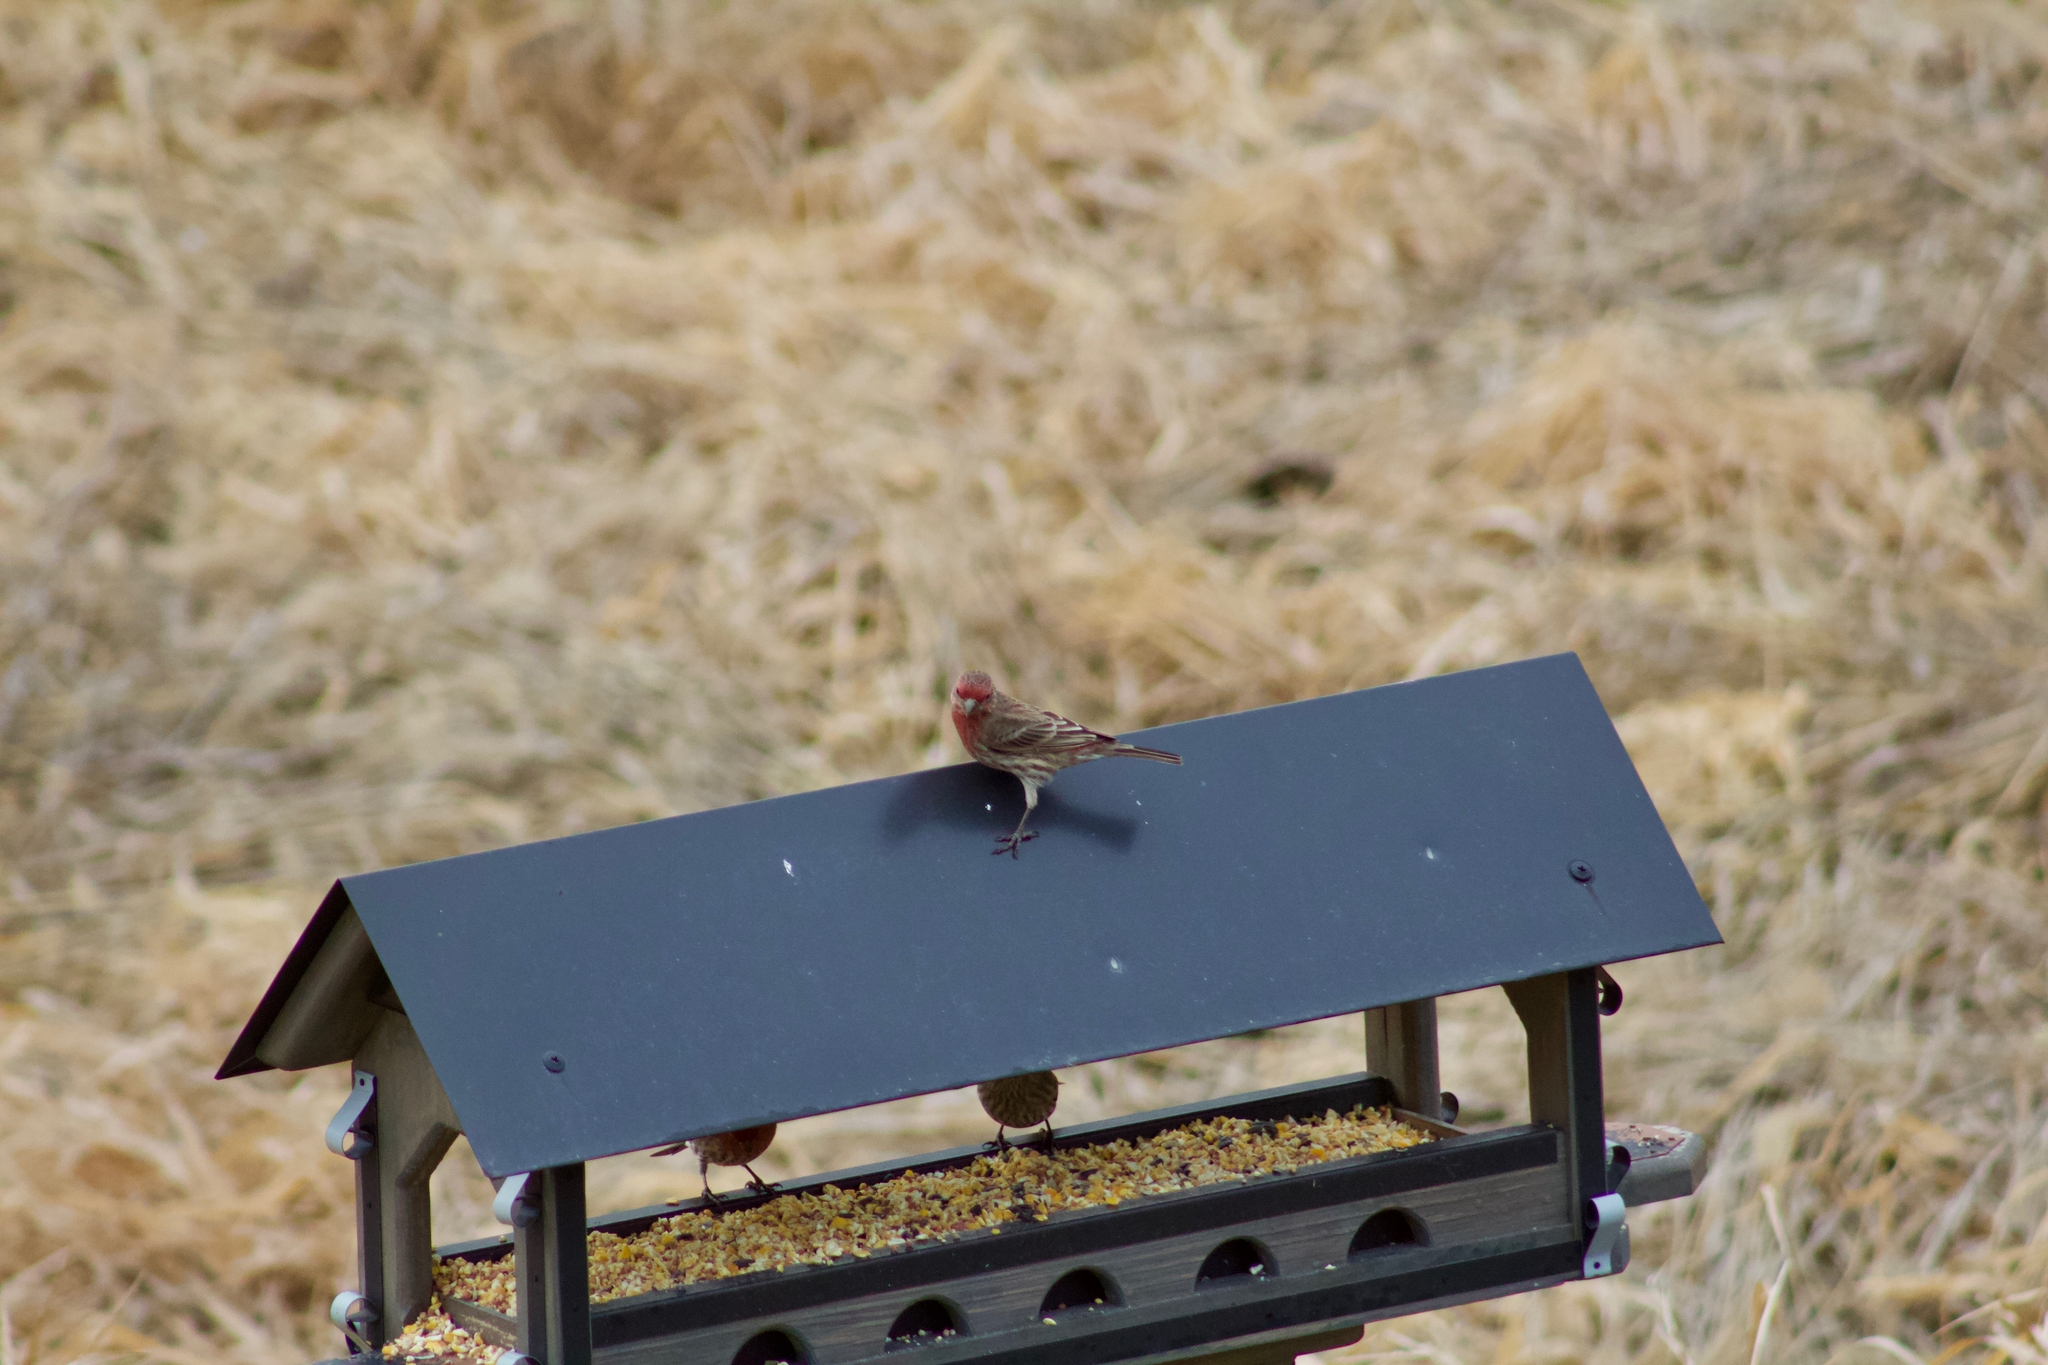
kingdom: Animalia
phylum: Chordata
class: Aves
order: Passeriformes
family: Fringillidae
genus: Haemorhous
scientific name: Haemorhous mexicanus
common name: House finch
